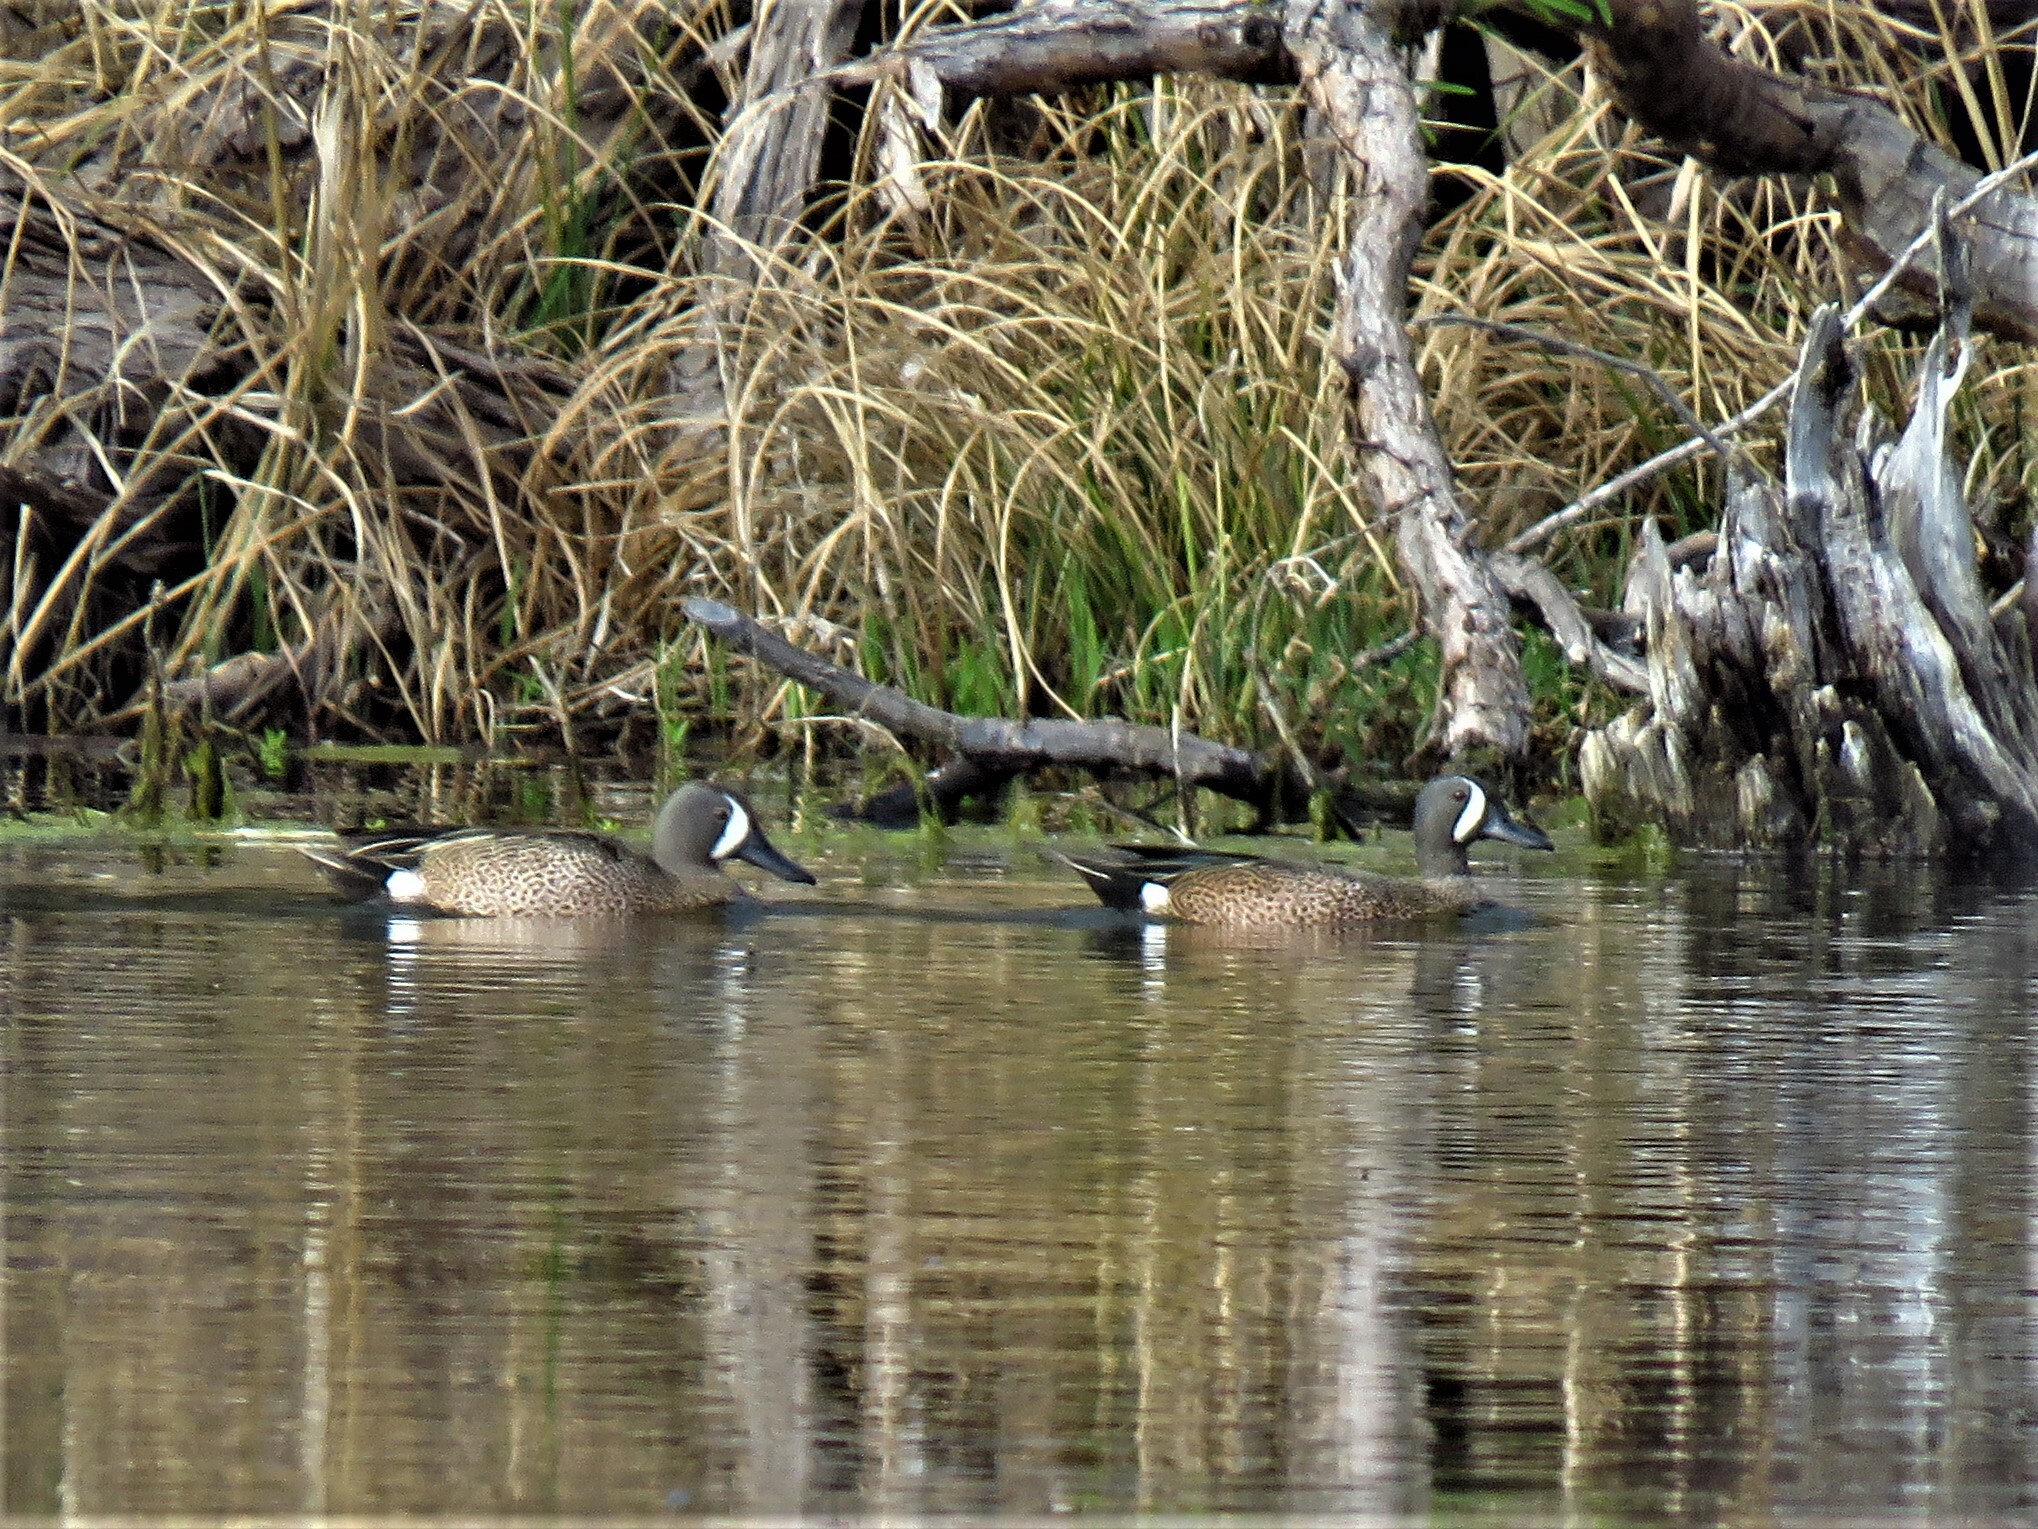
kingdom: Animalia
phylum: Chordata
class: Aves
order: Anseriformes
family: Anatidae
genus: Spatula
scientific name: Spatula discors
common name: Blue-winged teal
